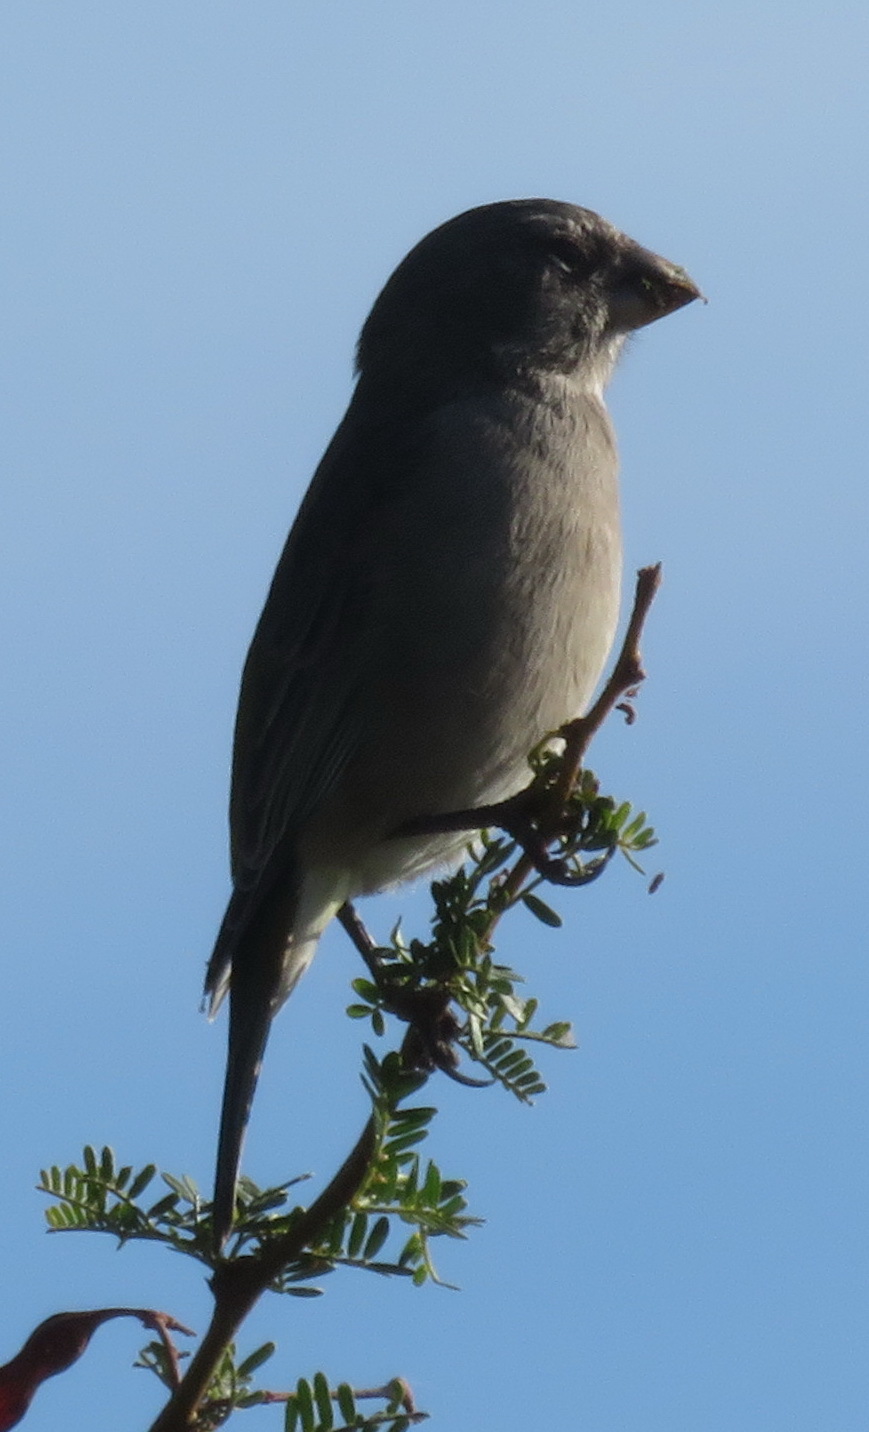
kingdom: Animalia
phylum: Chordata
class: Aves
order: Passeriformes
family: Fringillidae
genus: Crithagra
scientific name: Crithagra albogularis
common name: White-throated canary
